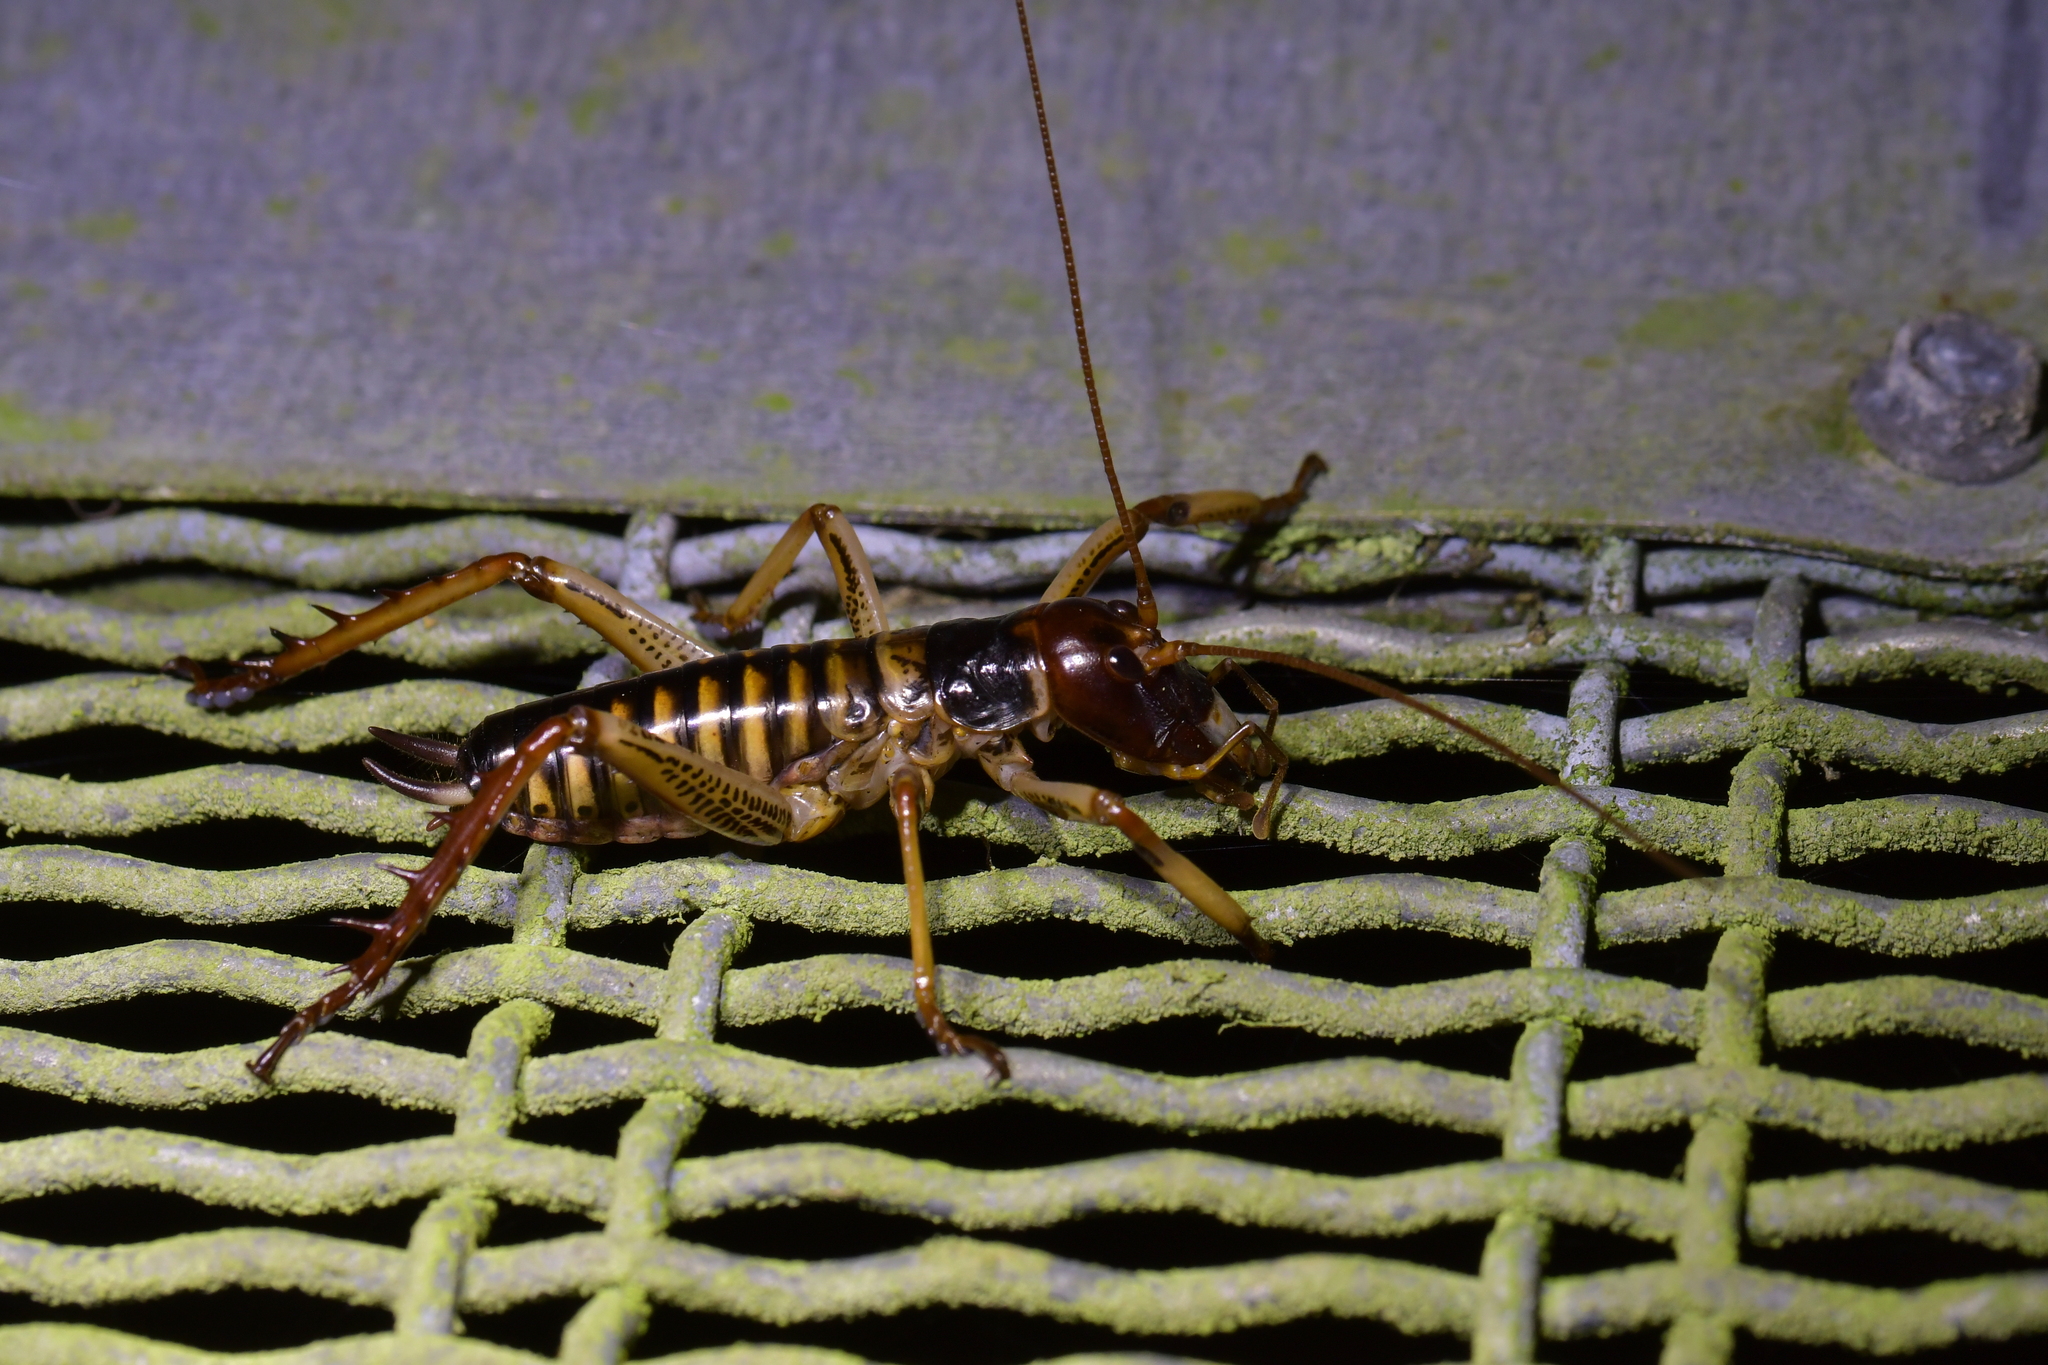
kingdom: Animalia
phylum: Arthropoda
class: Insecta
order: Orthoptera
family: Anostostomatidae
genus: Hemideina
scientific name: Hemideina crassidens
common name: Wellington tree weta
